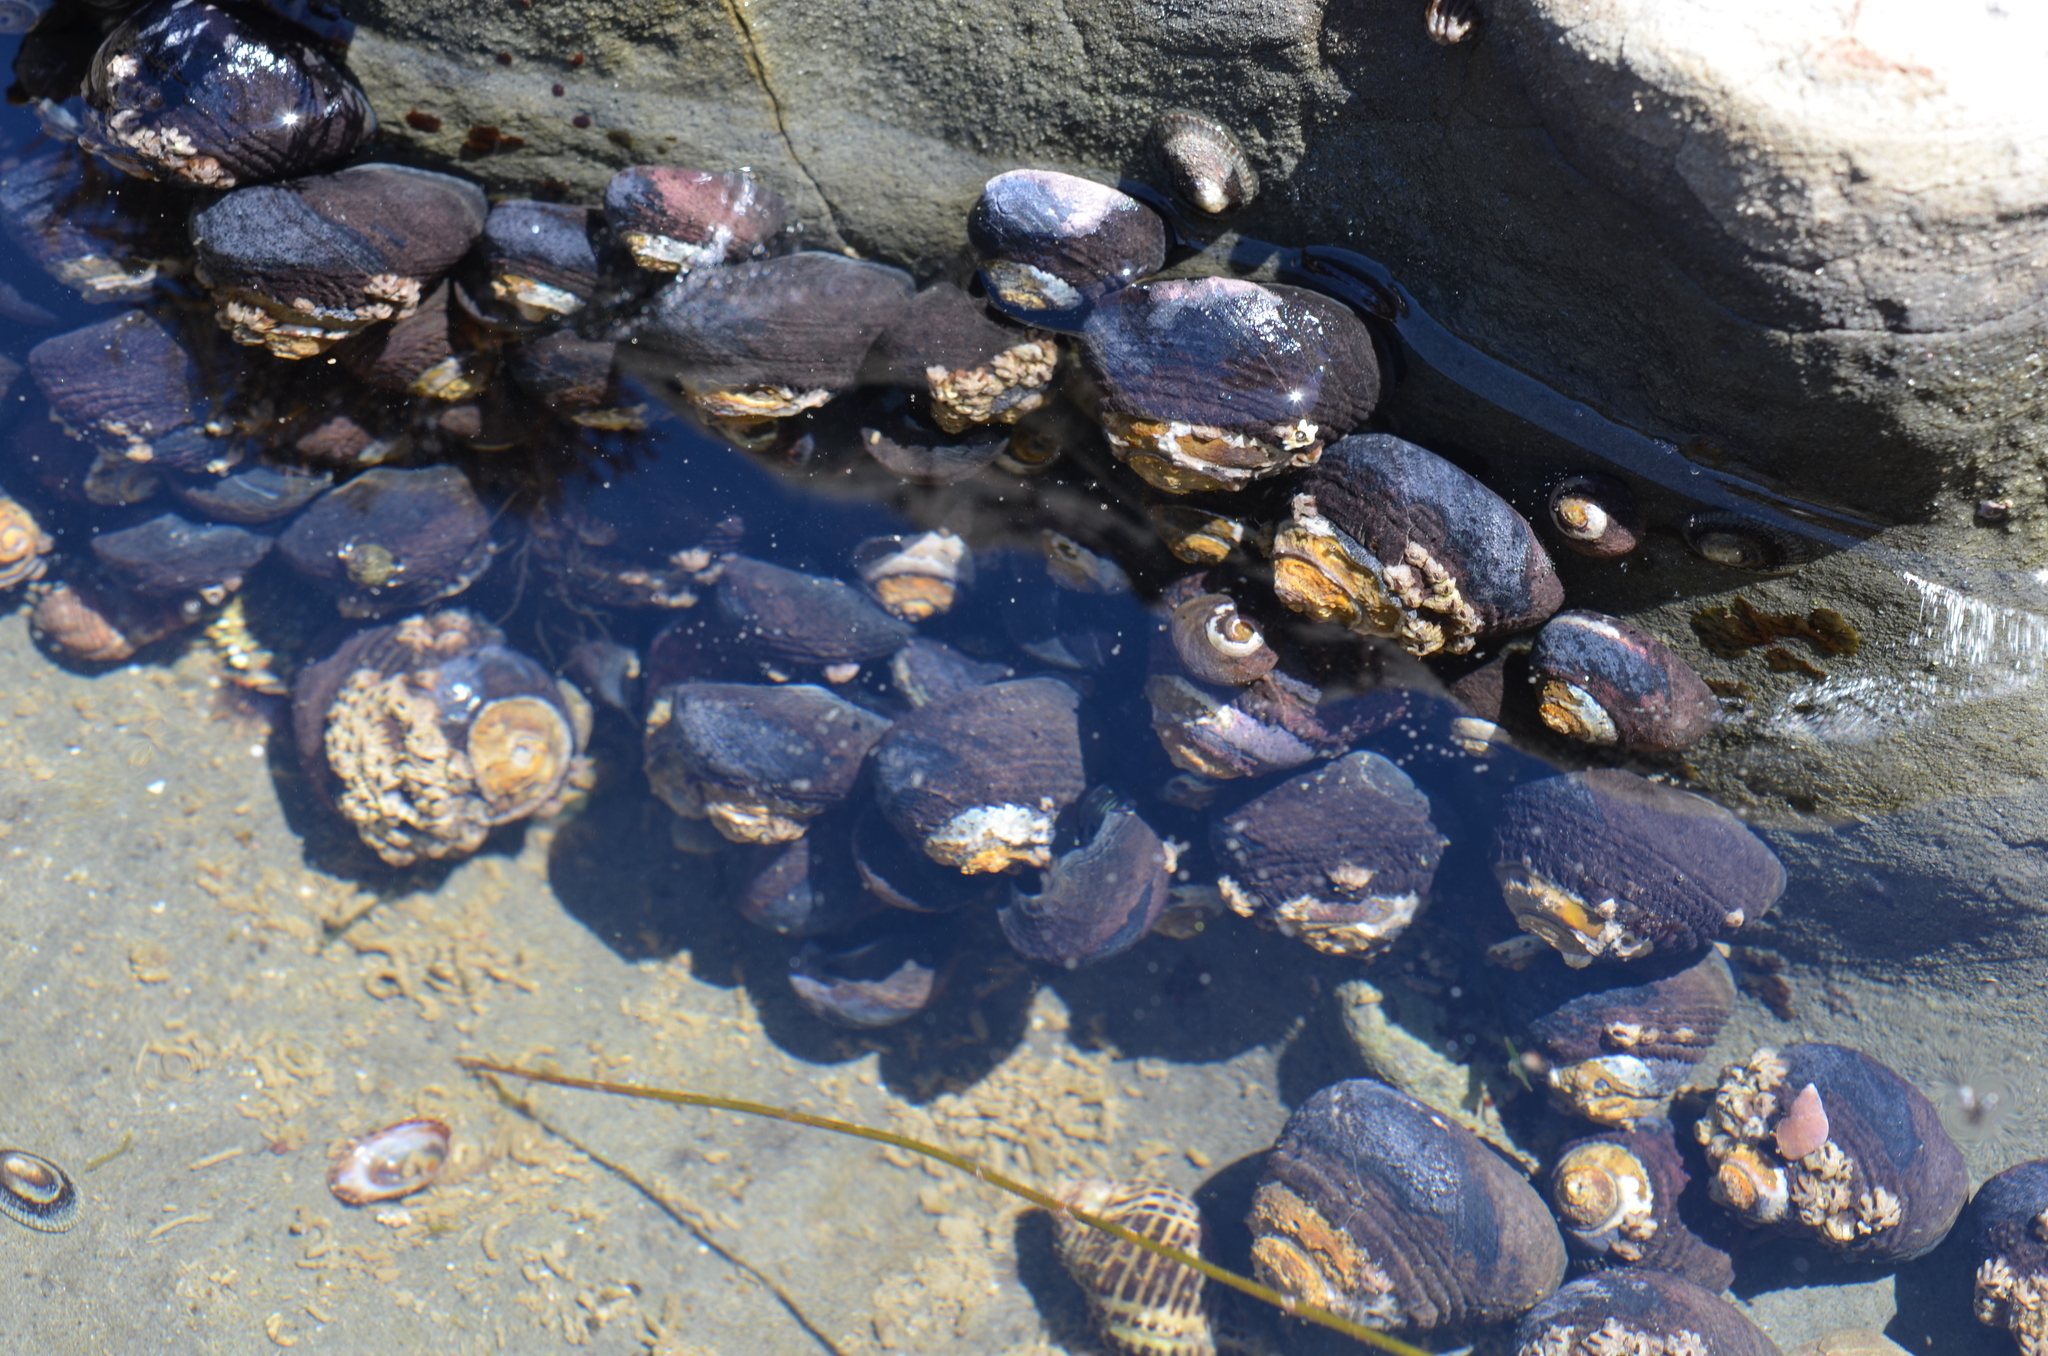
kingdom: Animalia
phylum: Mollusca
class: Gastropoda
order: Trochida
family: Tegulidae
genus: Tegula
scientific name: Tegula funebralis
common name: Black tegula
